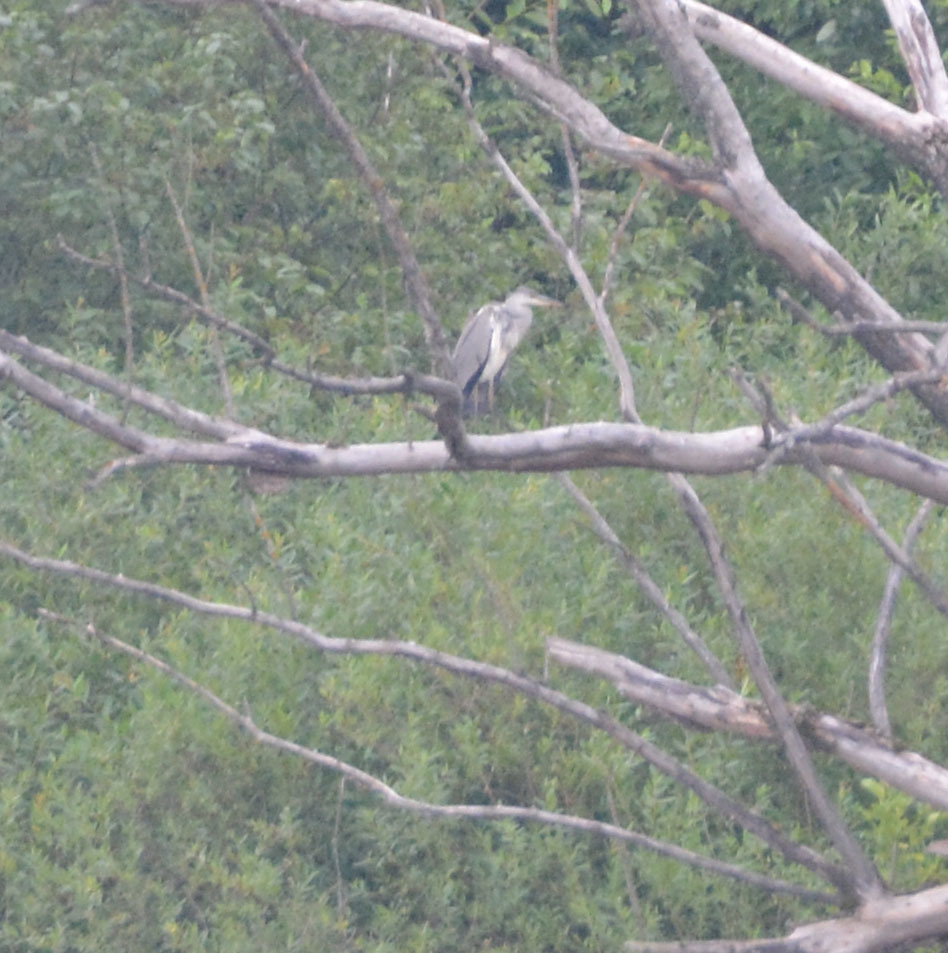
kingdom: Animalia
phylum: Chordata
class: Aves
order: Pelecaniformes
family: Ardeidae
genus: Ardea
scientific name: Ardea cinerea
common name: Grey heron
